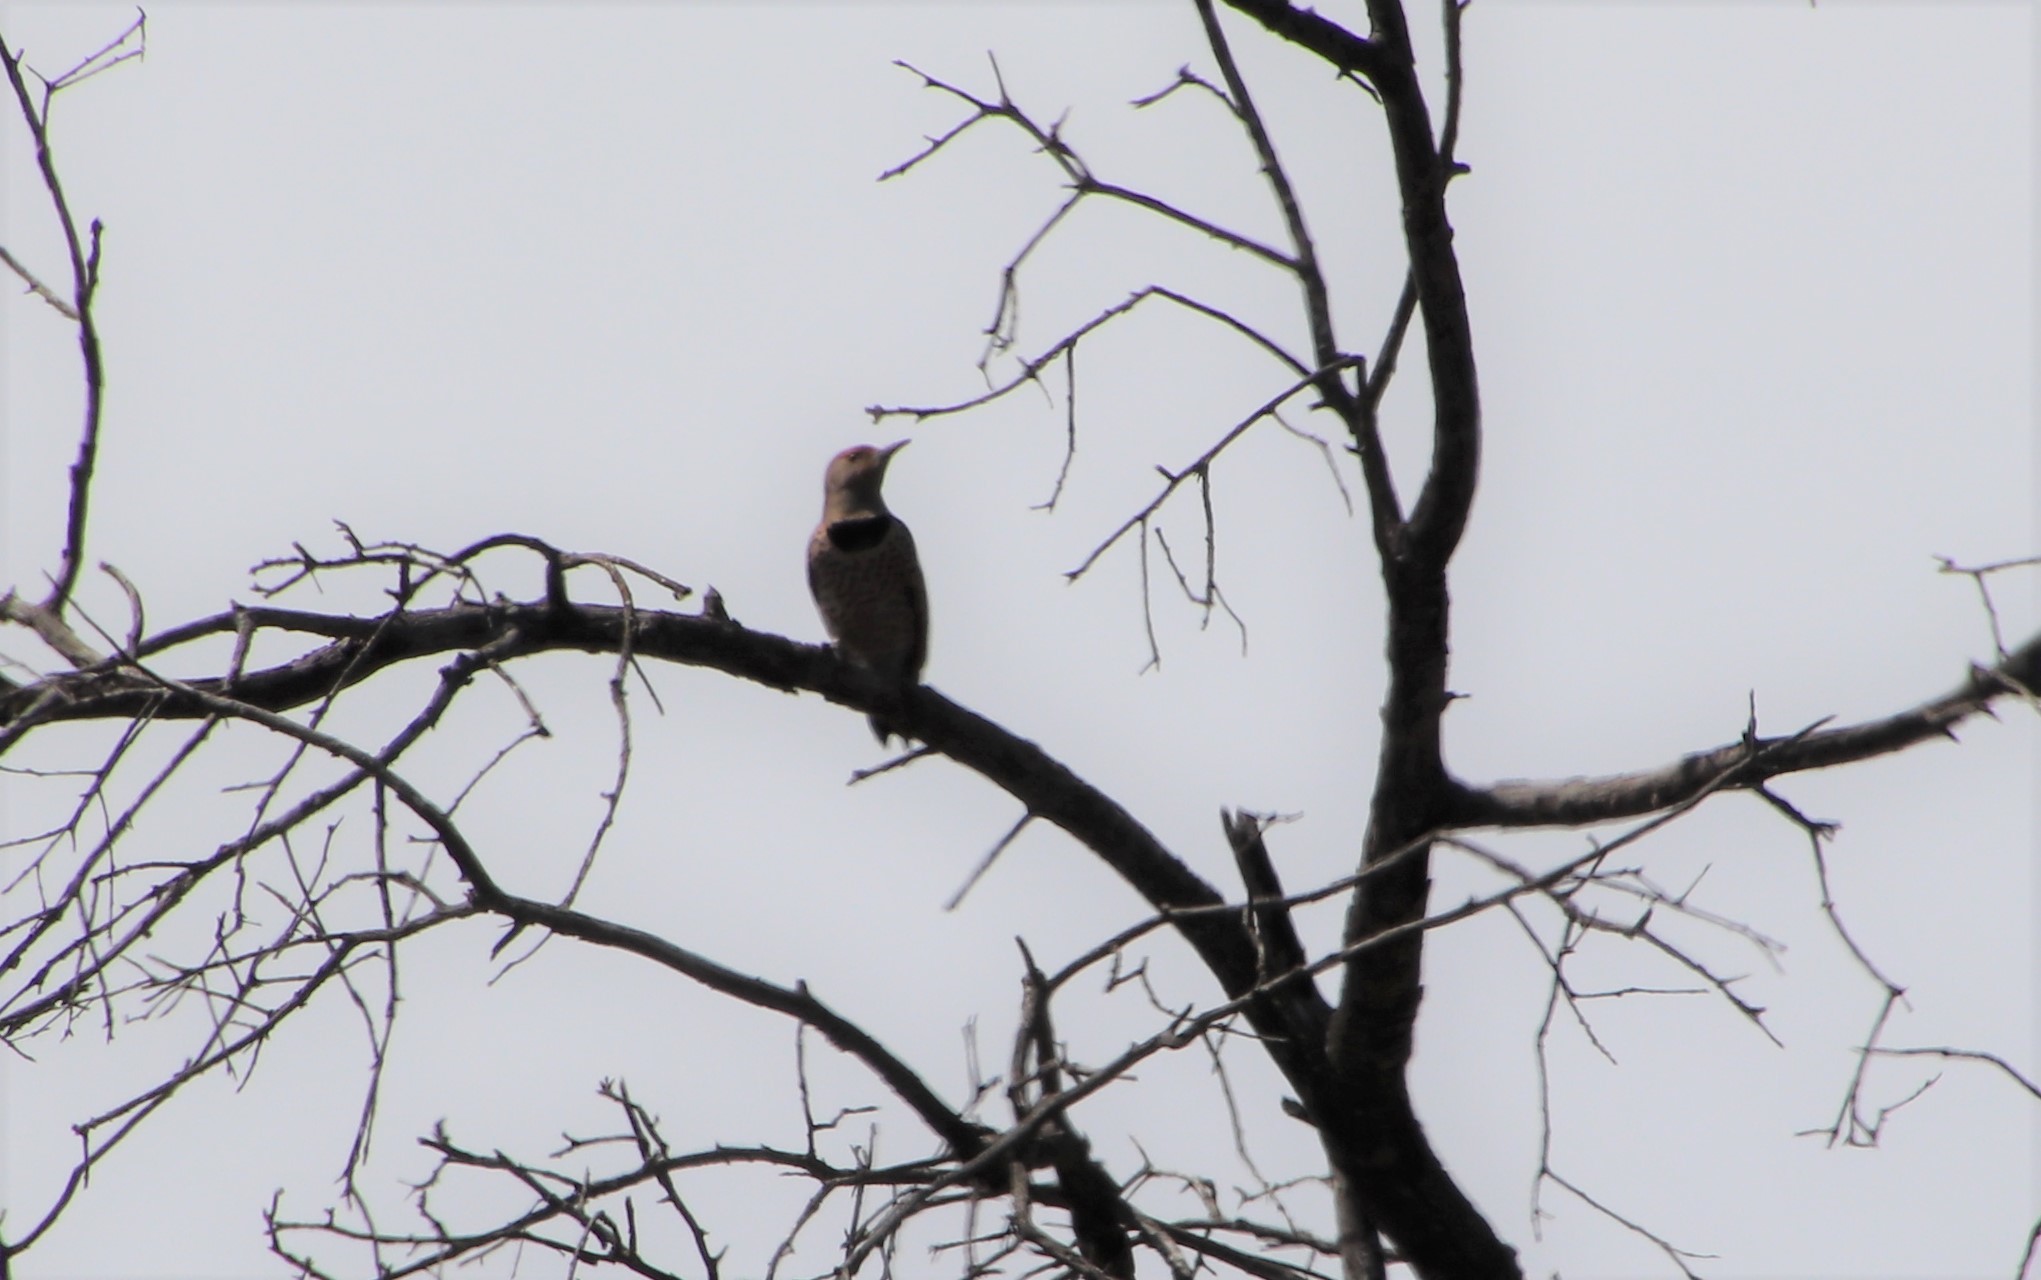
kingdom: Animalia
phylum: Chordata
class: Aves
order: Piciformes
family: Picidae
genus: Colaptes
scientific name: Colaptes auratus
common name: Northern flicker
